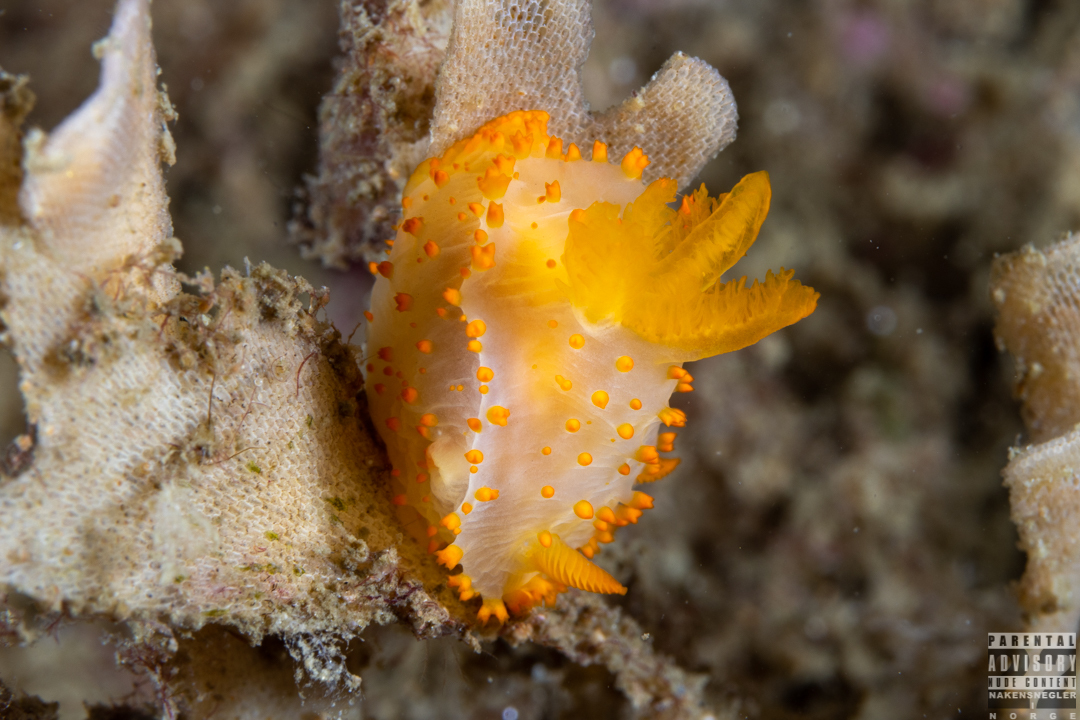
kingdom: Animalia
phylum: Mollusca
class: Gastropoda
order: Nudibranchia
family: Polyceridae
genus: Crimora
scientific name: Crimora papillata
